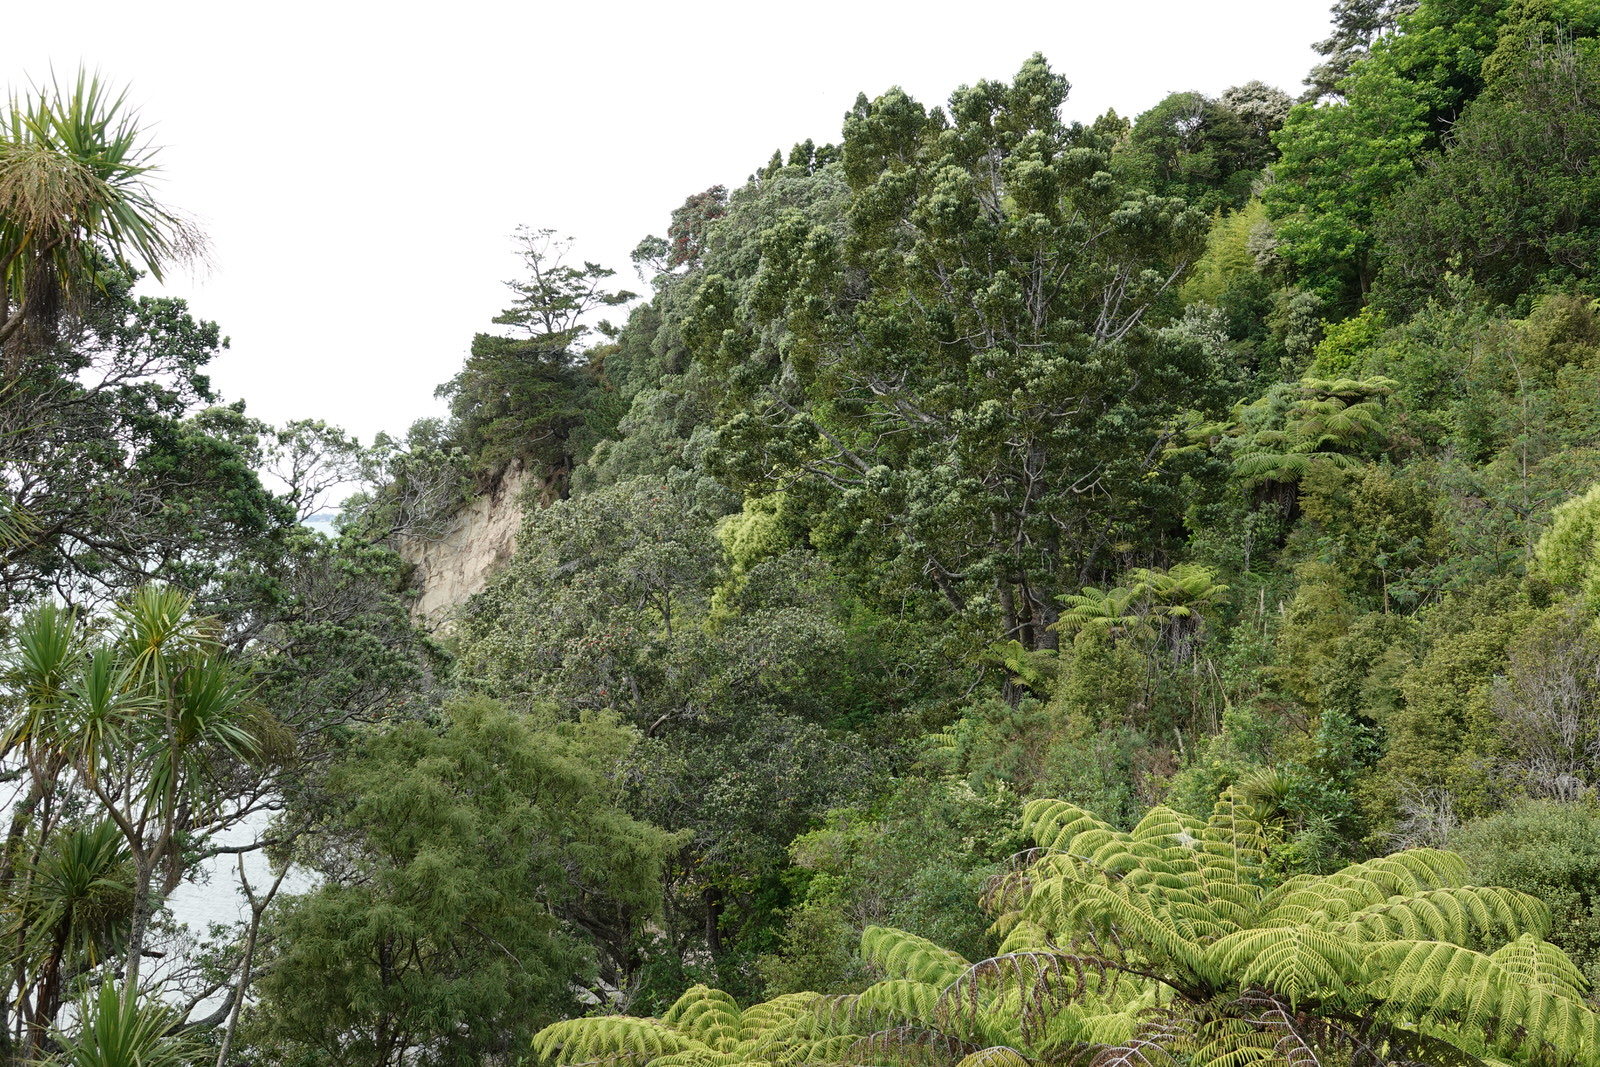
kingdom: Plantae
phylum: Tracheophyta
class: Pinopsida
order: Pinales
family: Araucariaceae
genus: Agathis
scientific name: Agathis australis
